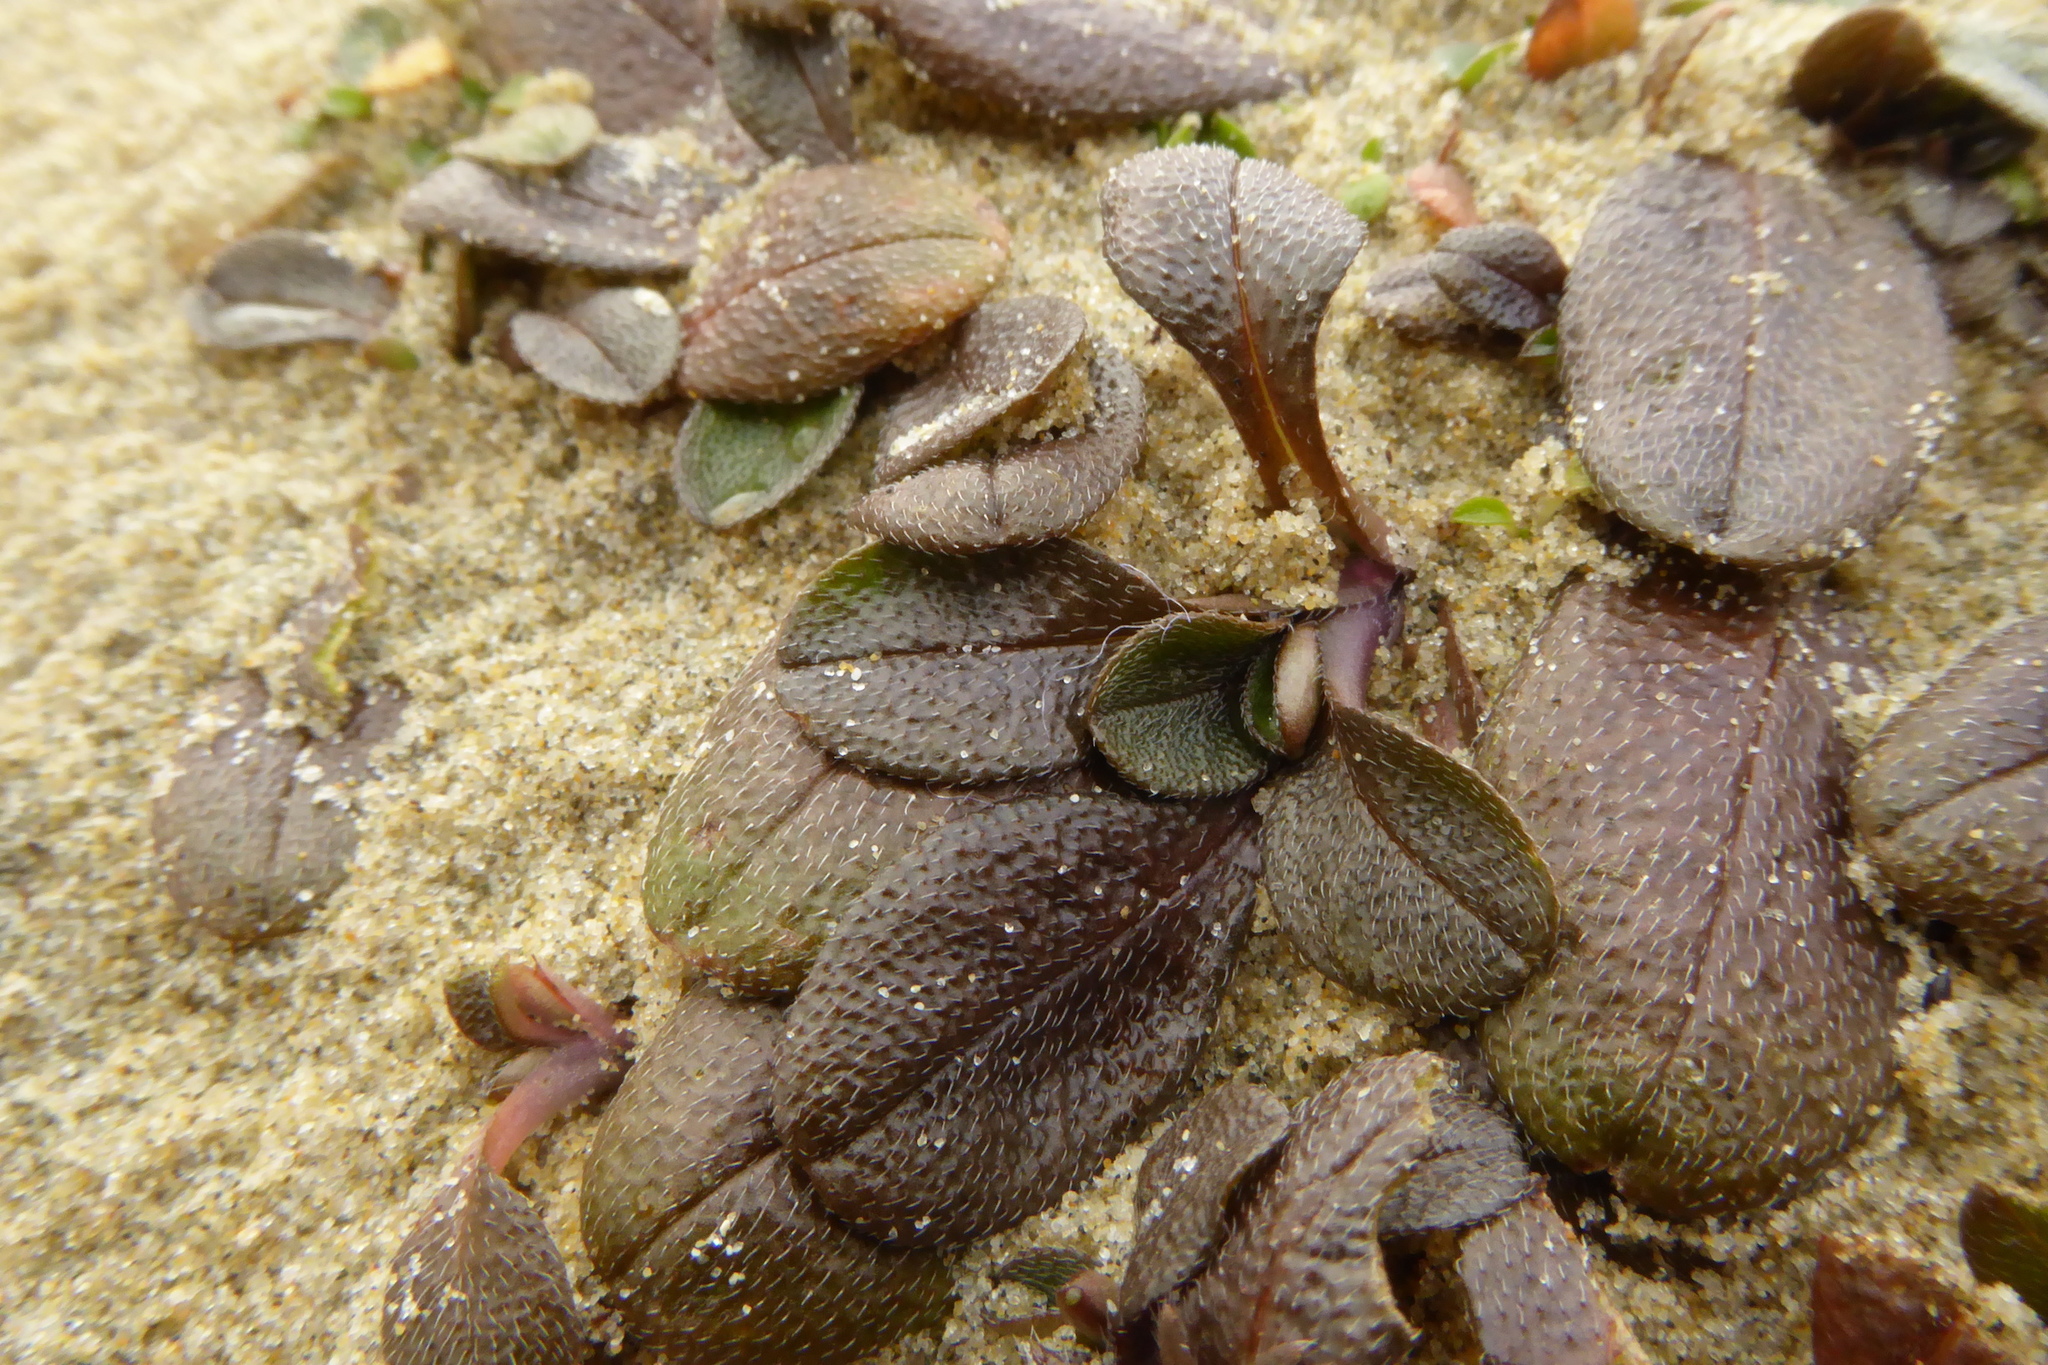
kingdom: Plantae
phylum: Tracheophyta
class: Magnoliopsida
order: Boraginales
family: Boraginaceae
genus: Myosotis
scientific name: Myosotis antarctica
